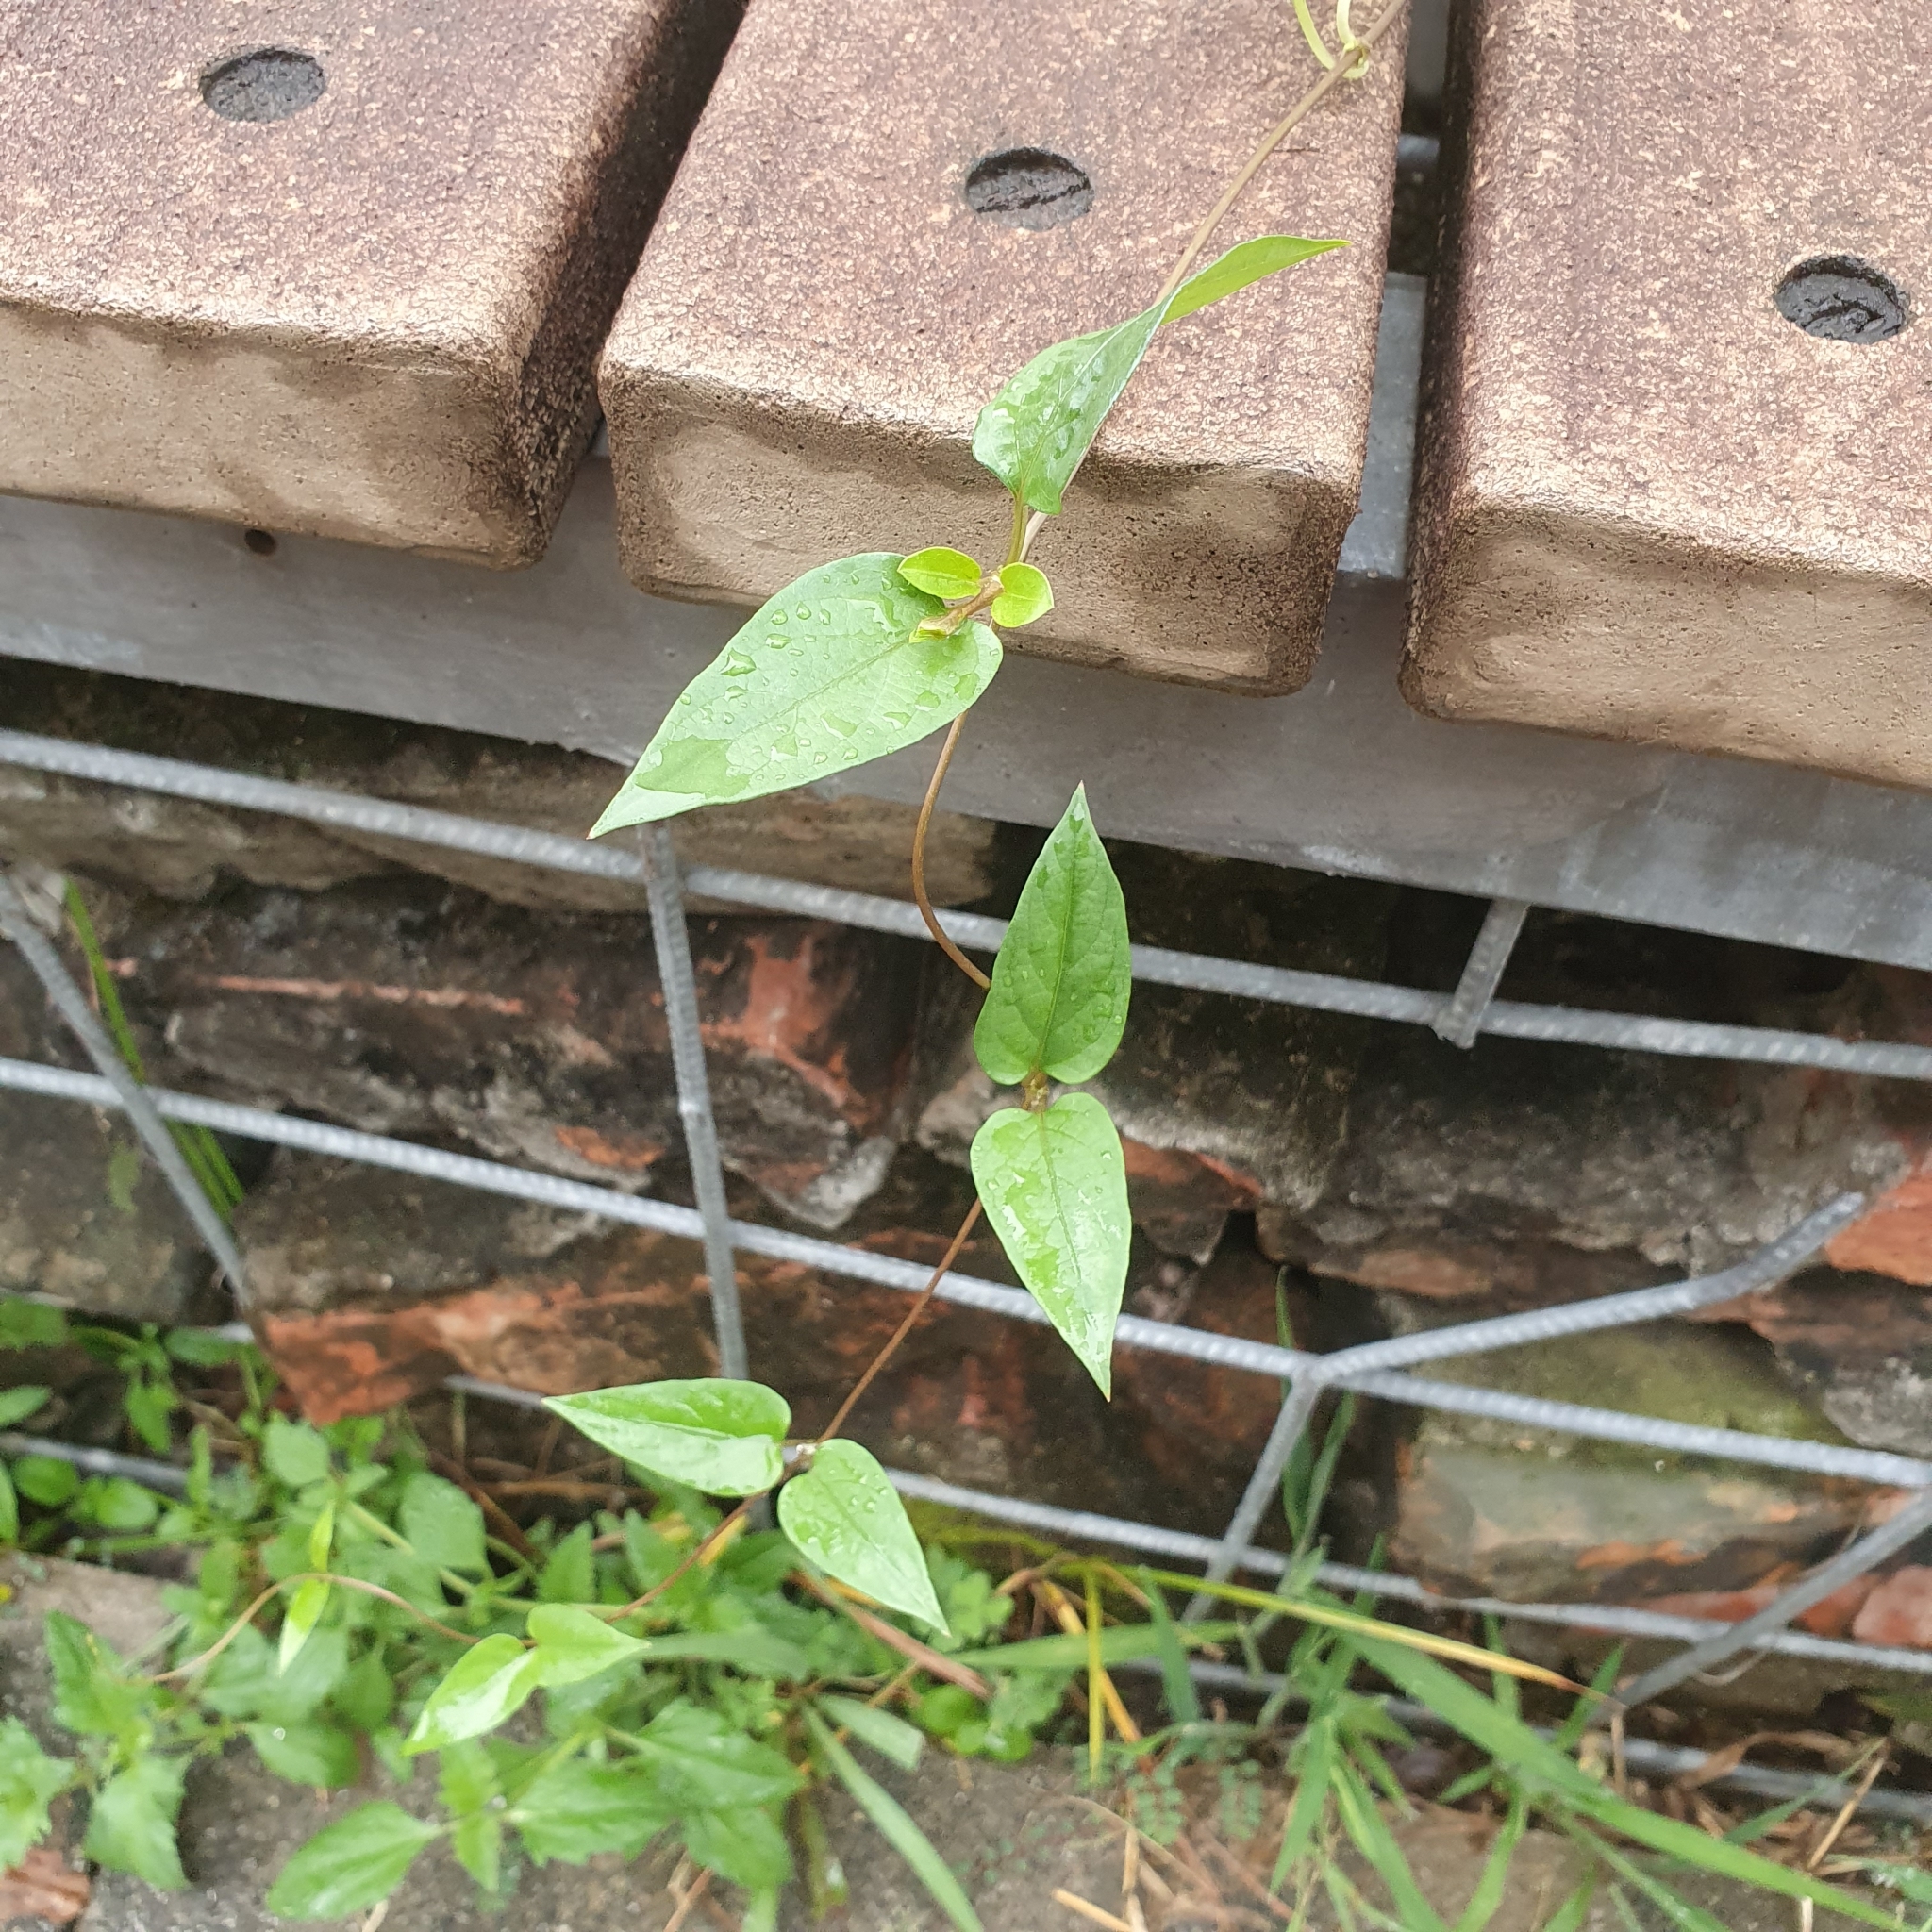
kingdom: Plantae
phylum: Tracheophyta
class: Magnoliopsida
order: Gentianales
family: Rubiaceae
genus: Paederia
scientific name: Paederia foetida
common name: Stinkvine
